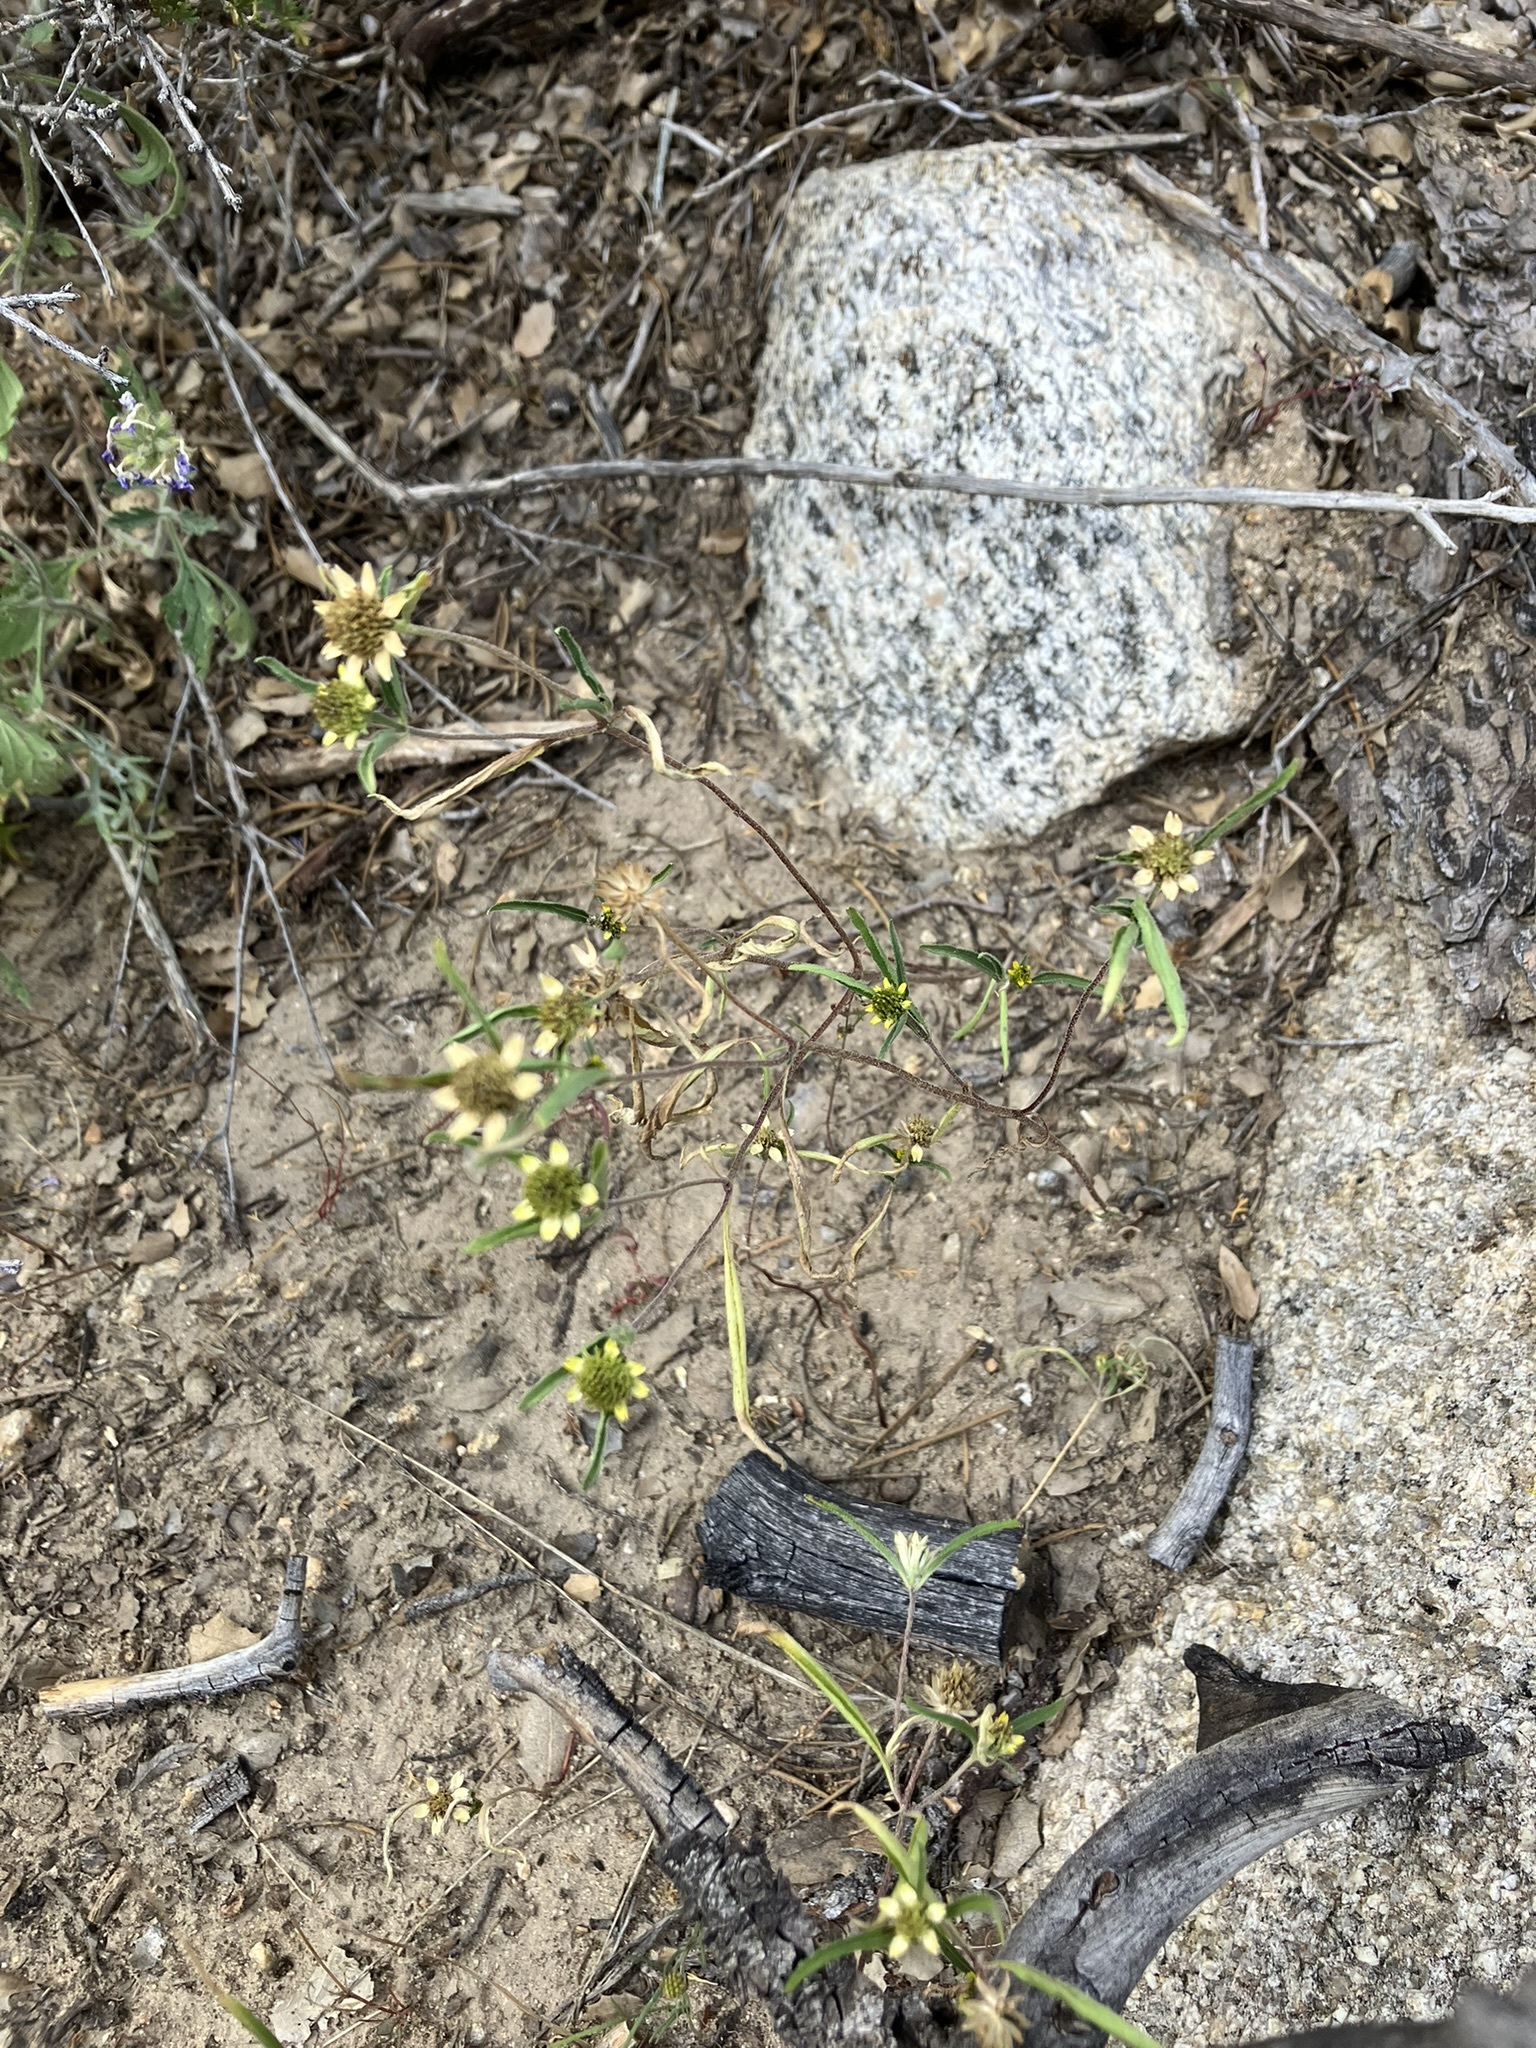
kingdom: Plantae
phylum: Tracheophyta
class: Magnoliopsida
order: Asterales
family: Asteraceae
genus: Sanvitalia
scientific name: Sanvitalia abertii
